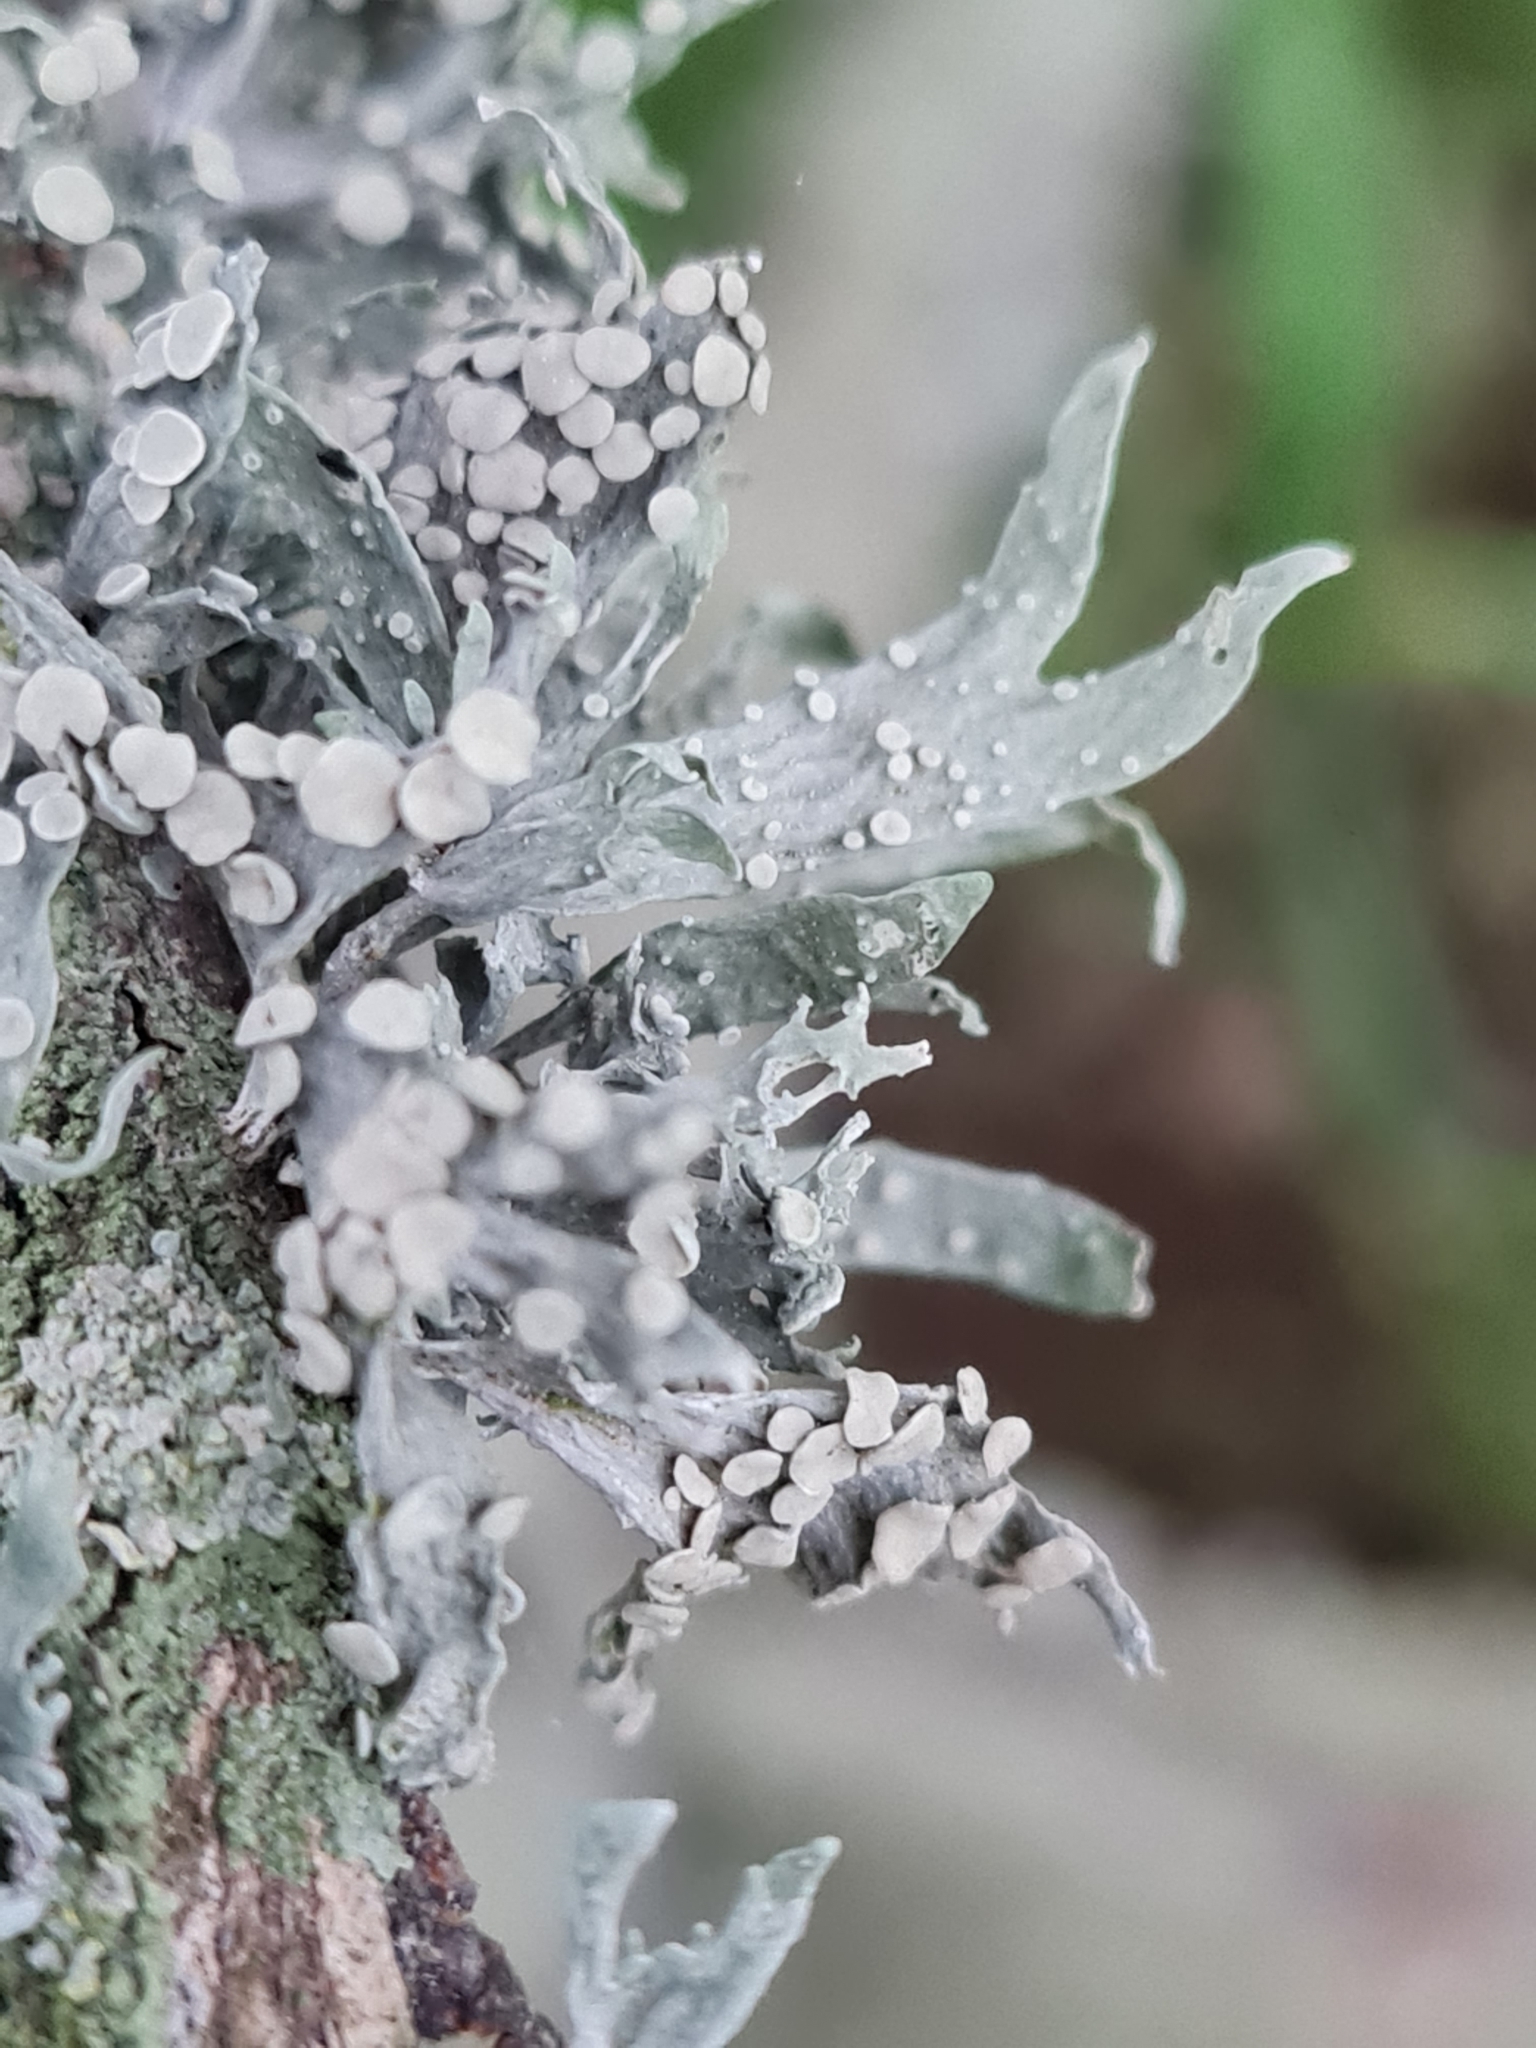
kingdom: Fungi
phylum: Ascomycota
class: Lecanoromycetes
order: Lecanorales
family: Ramalinaceae
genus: Ramalina
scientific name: Ramalina celastri
